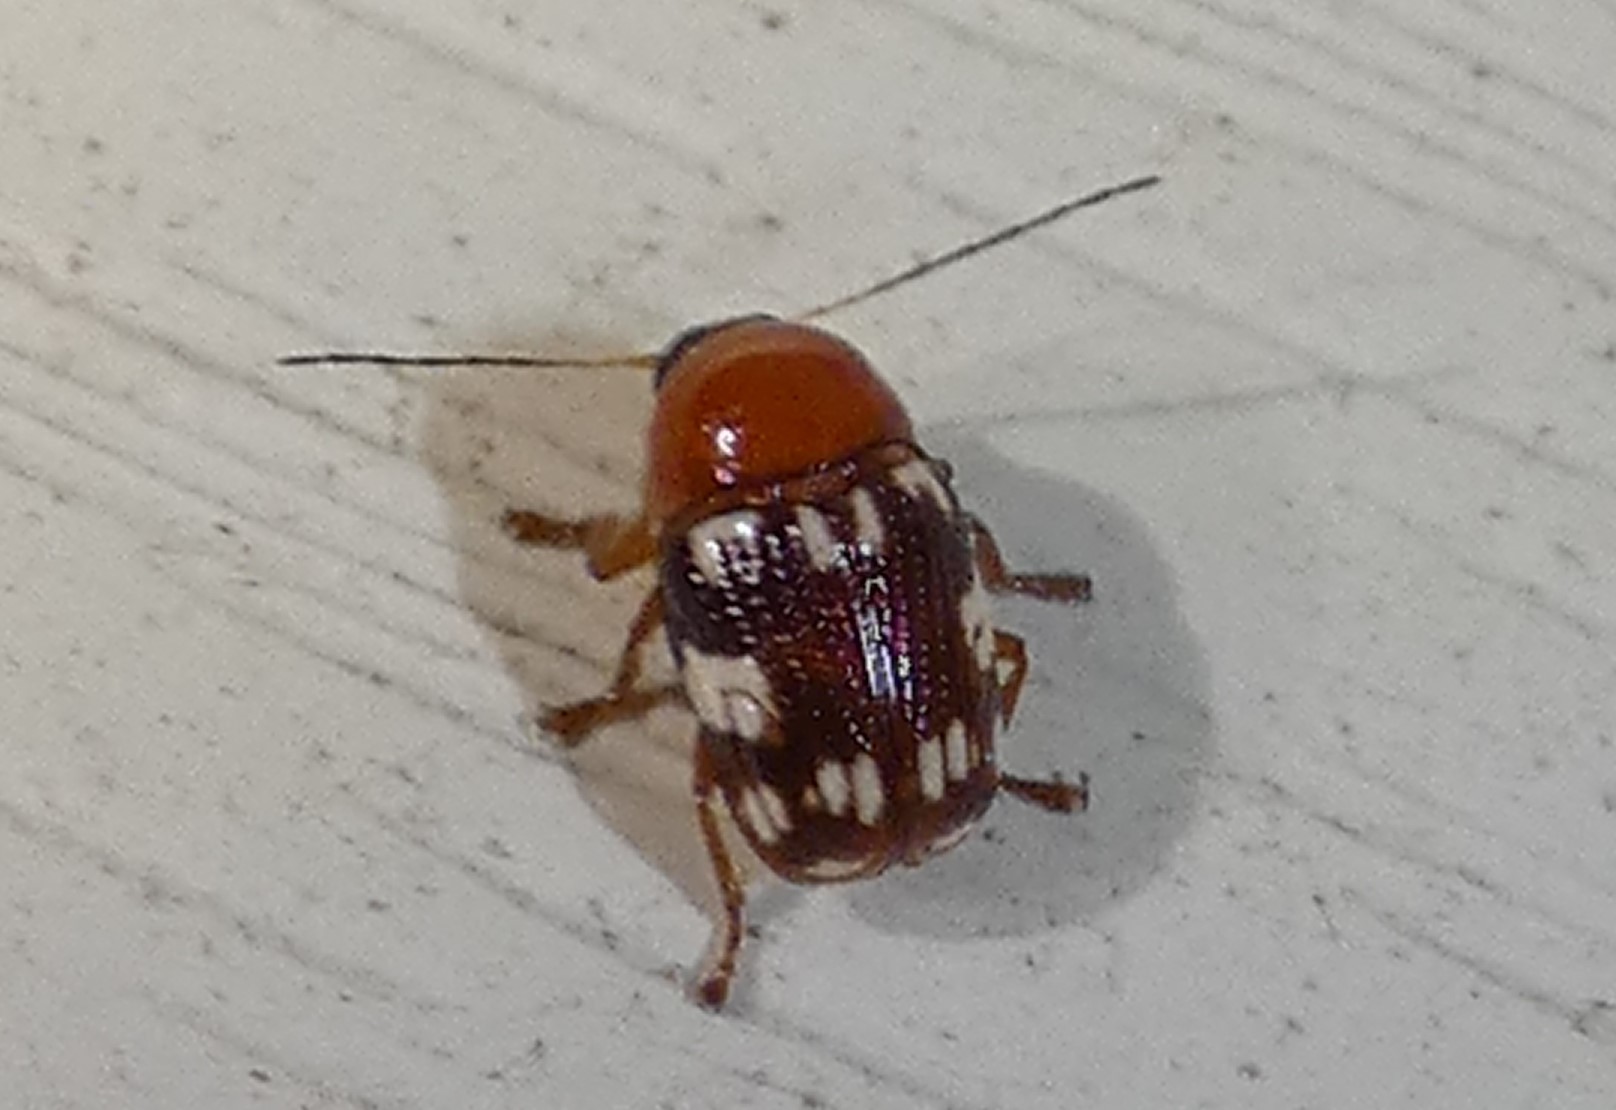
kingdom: Animalia
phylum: Arthropoda
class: Insecta
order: Coleoptera
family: Chrysomelidae
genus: Cryptocephalus
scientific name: Cryptocephalus badius
